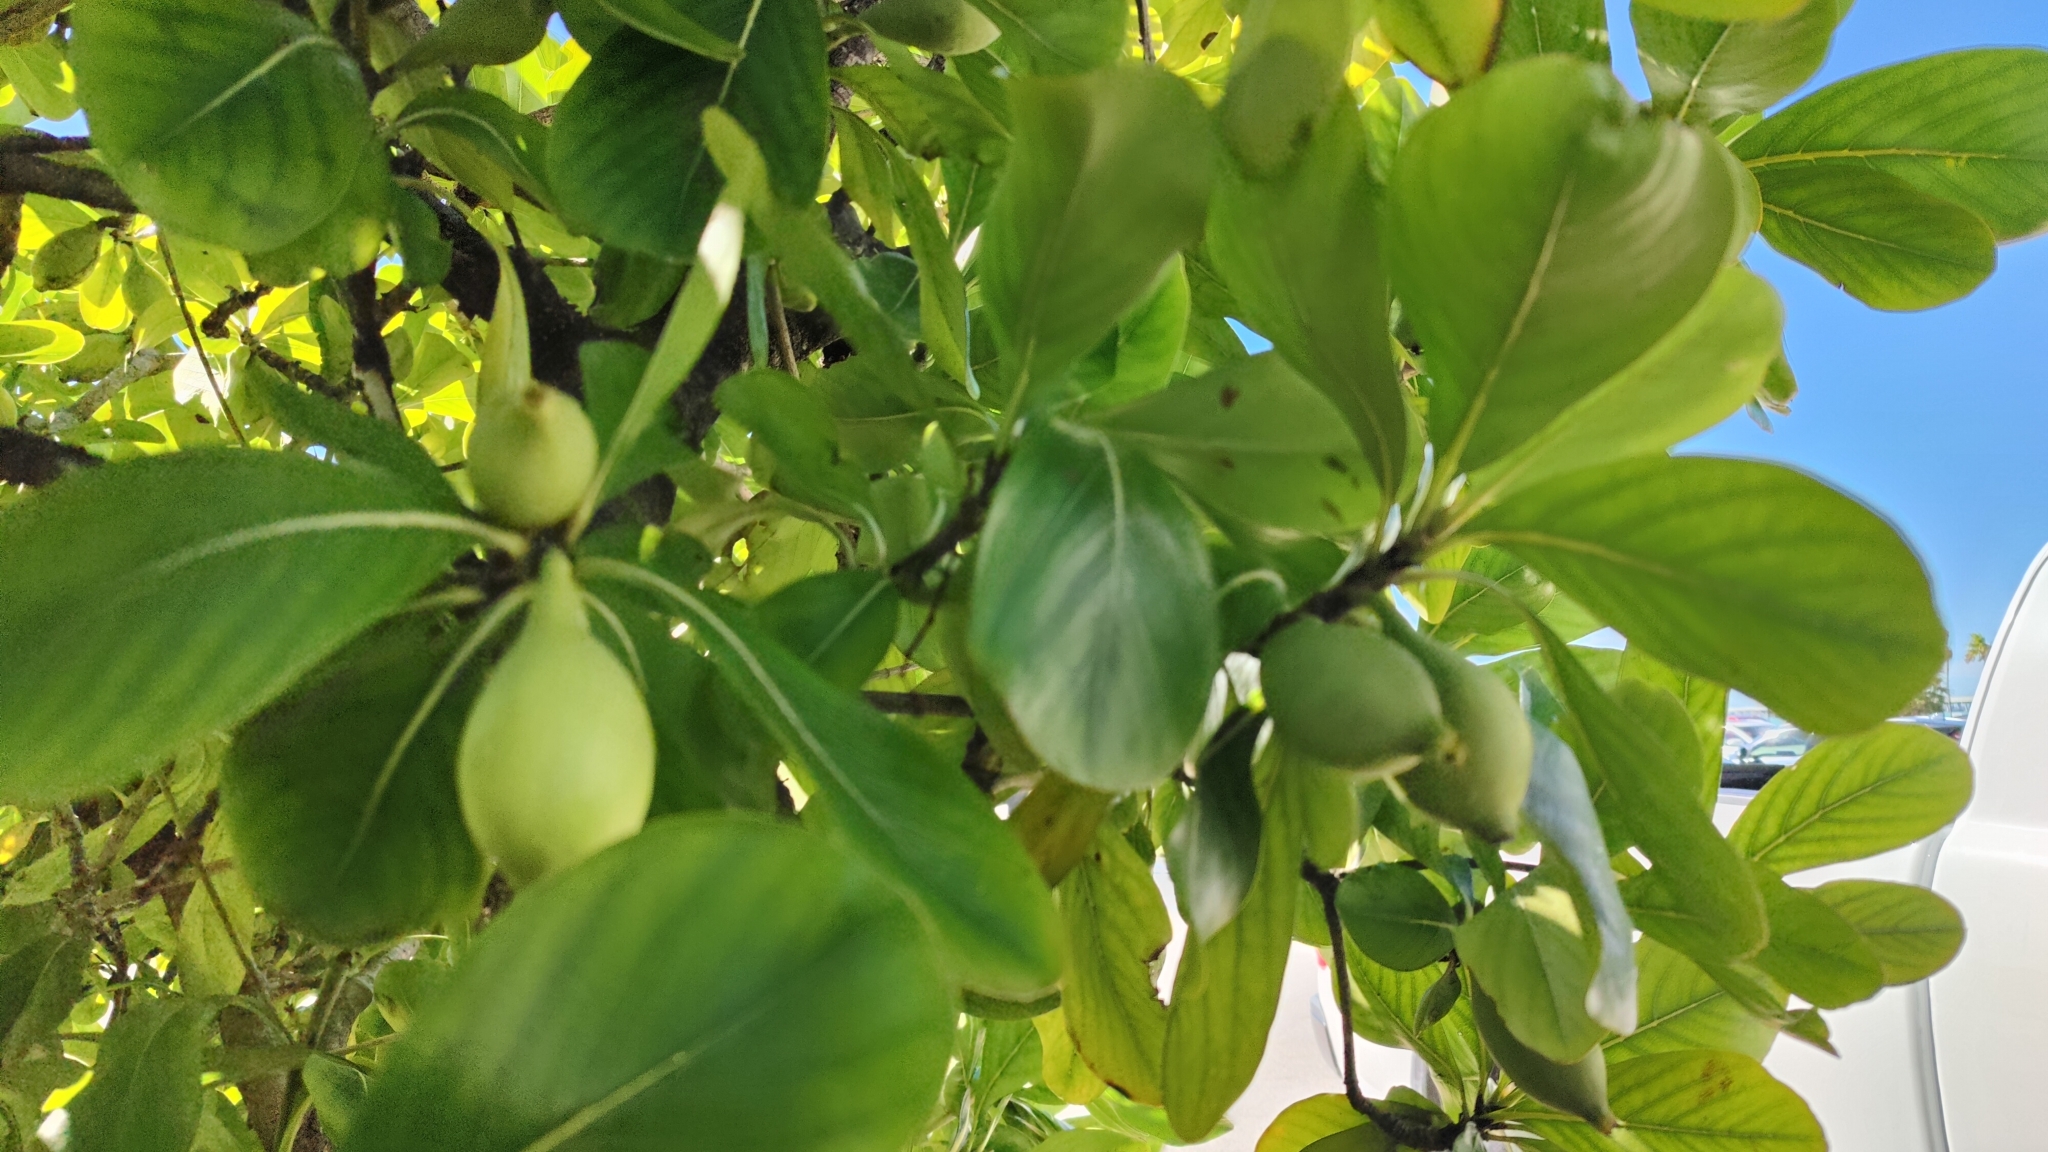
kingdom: Plantae
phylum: Tracheophyta
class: Magnoliopsida
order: Gentianales
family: Rubiaceae
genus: Casasia
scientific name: Casasia clusiifolia
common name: Seven-year apple
